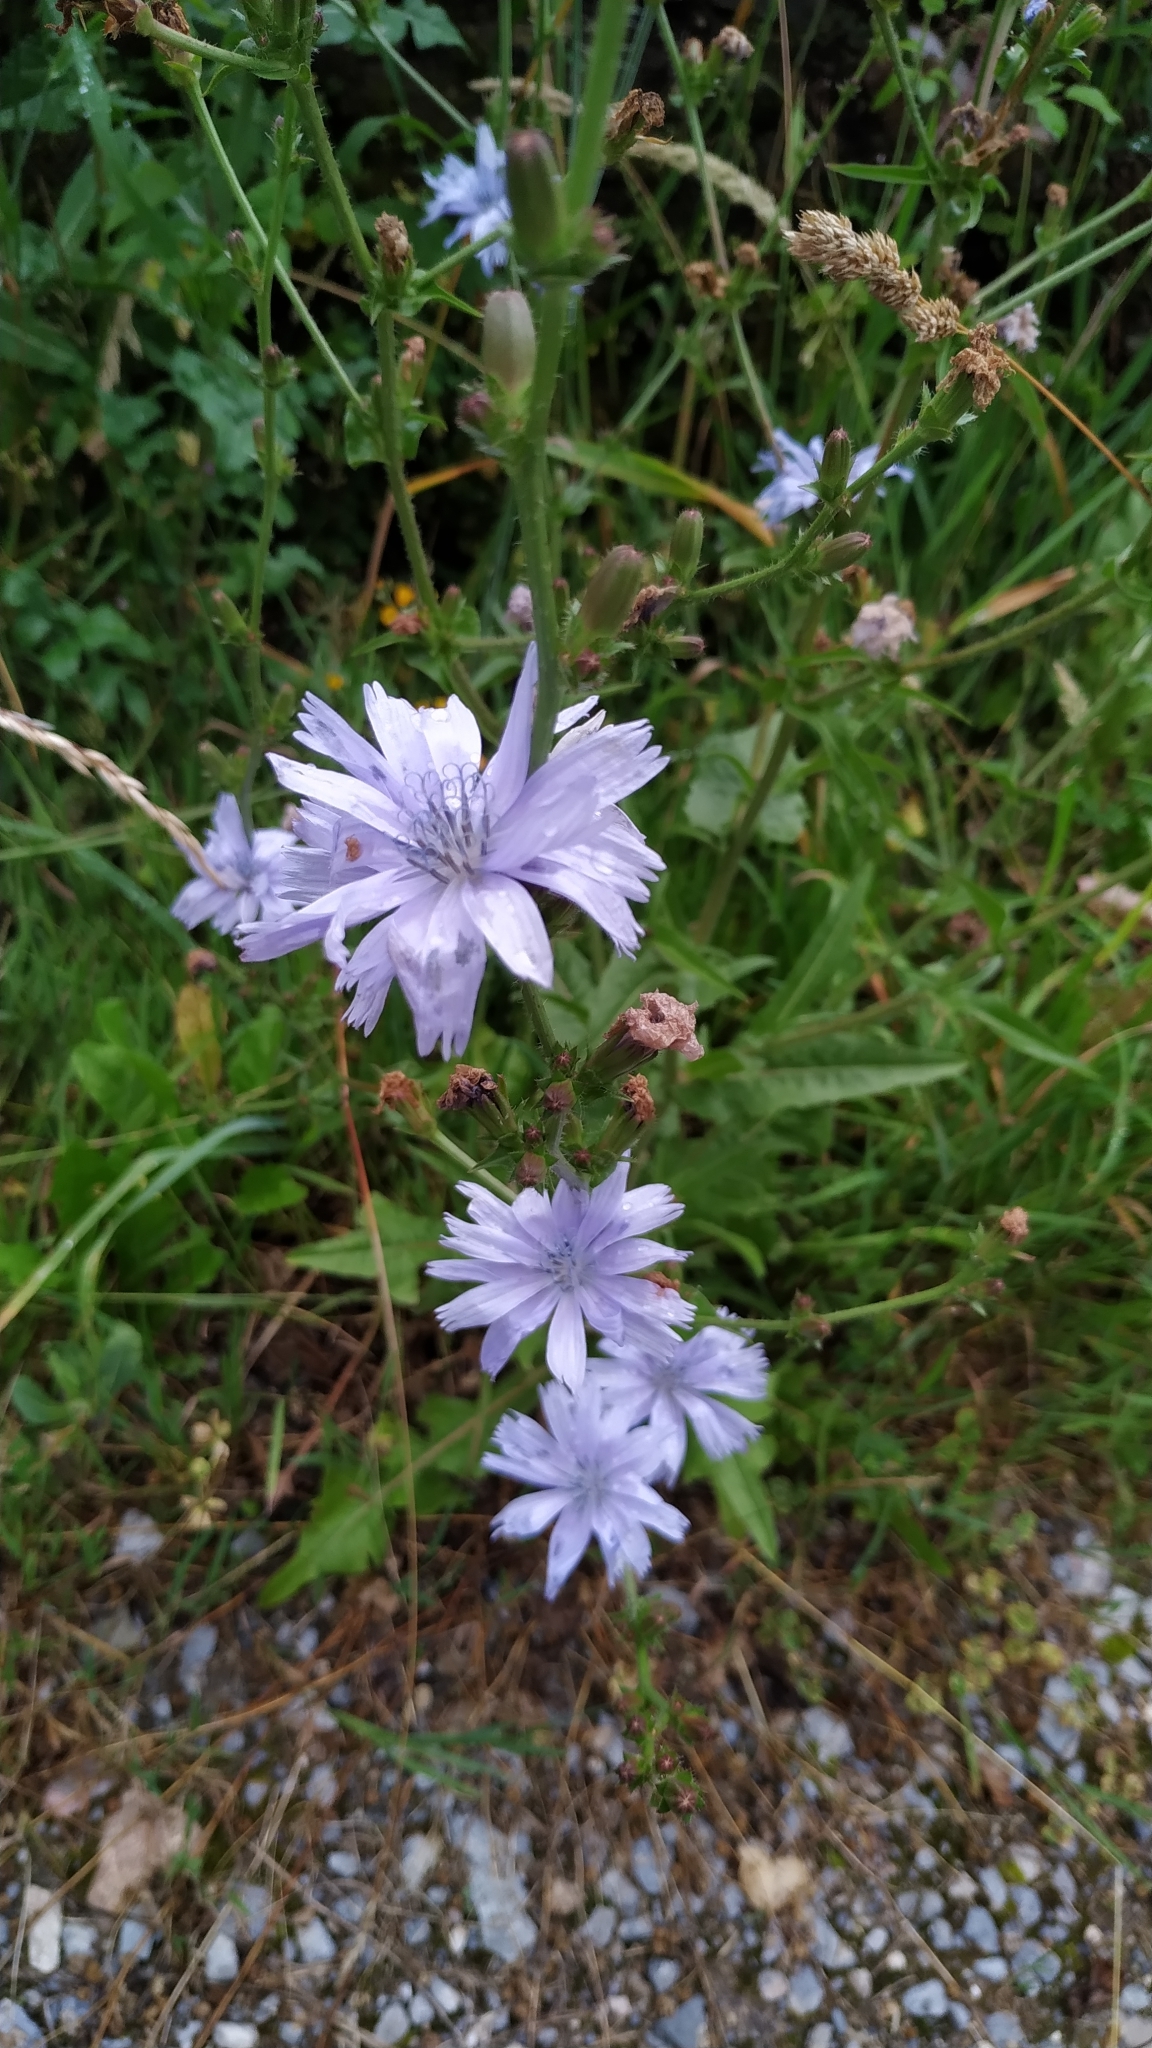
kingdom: Plantae
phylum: Tracheophyta
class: Magnoliopsida
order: Asterales
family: Asteraceae
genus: Cichorium
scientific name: Cichorium intybus
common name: Chicory
